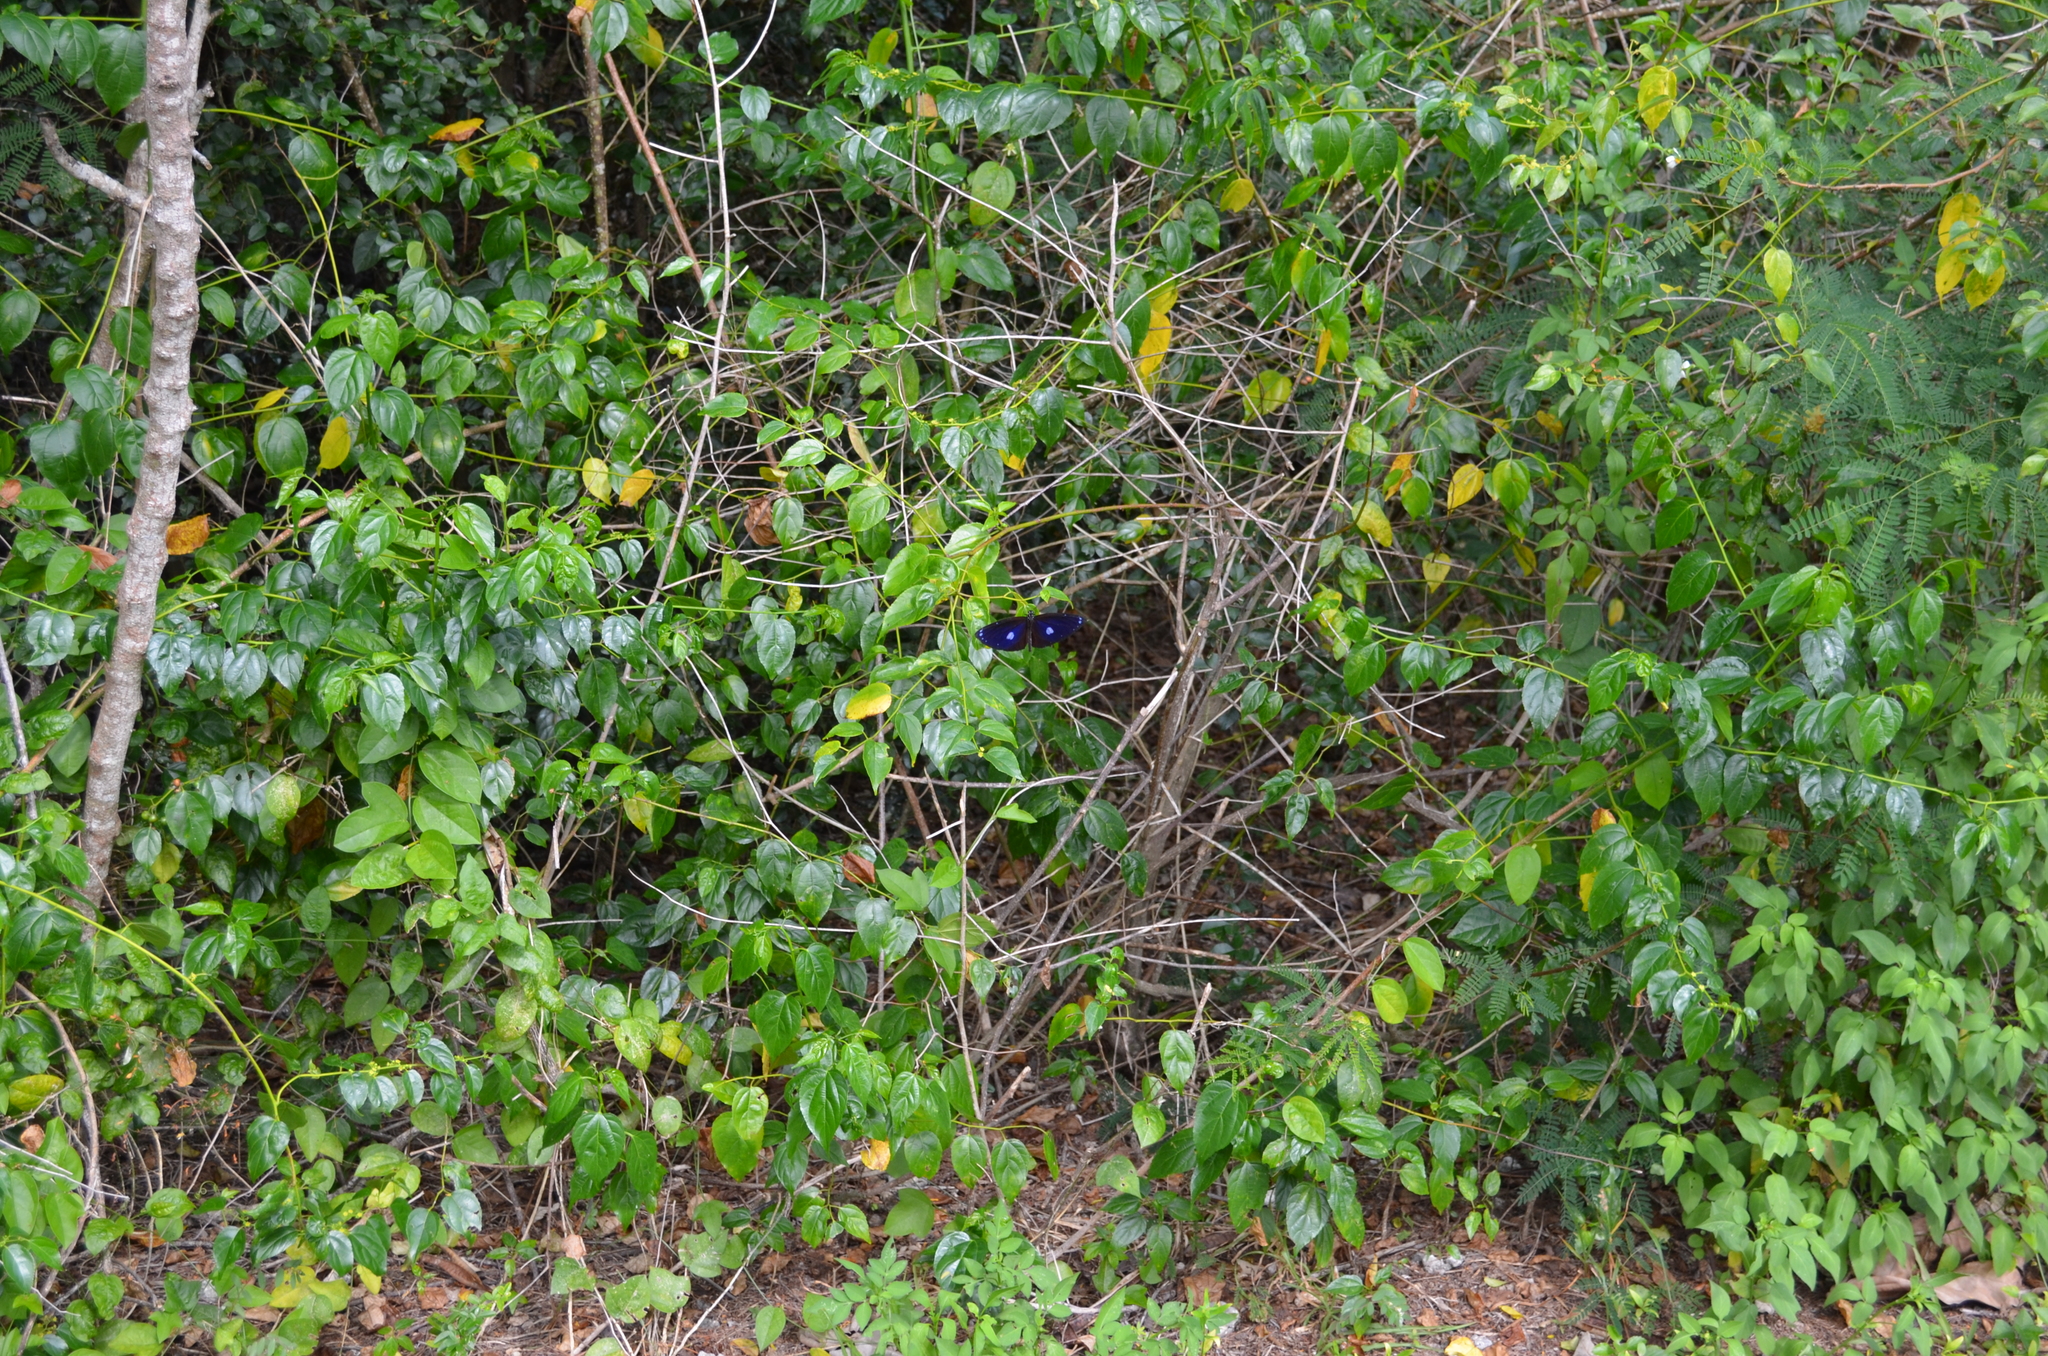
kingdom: Animalia
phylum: Arthropoda
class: Insecta
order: Lepidoptera
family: Nymphalidae
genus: Euploea
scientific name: Euploea eunice
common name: Blue-banded king crow butterfly
